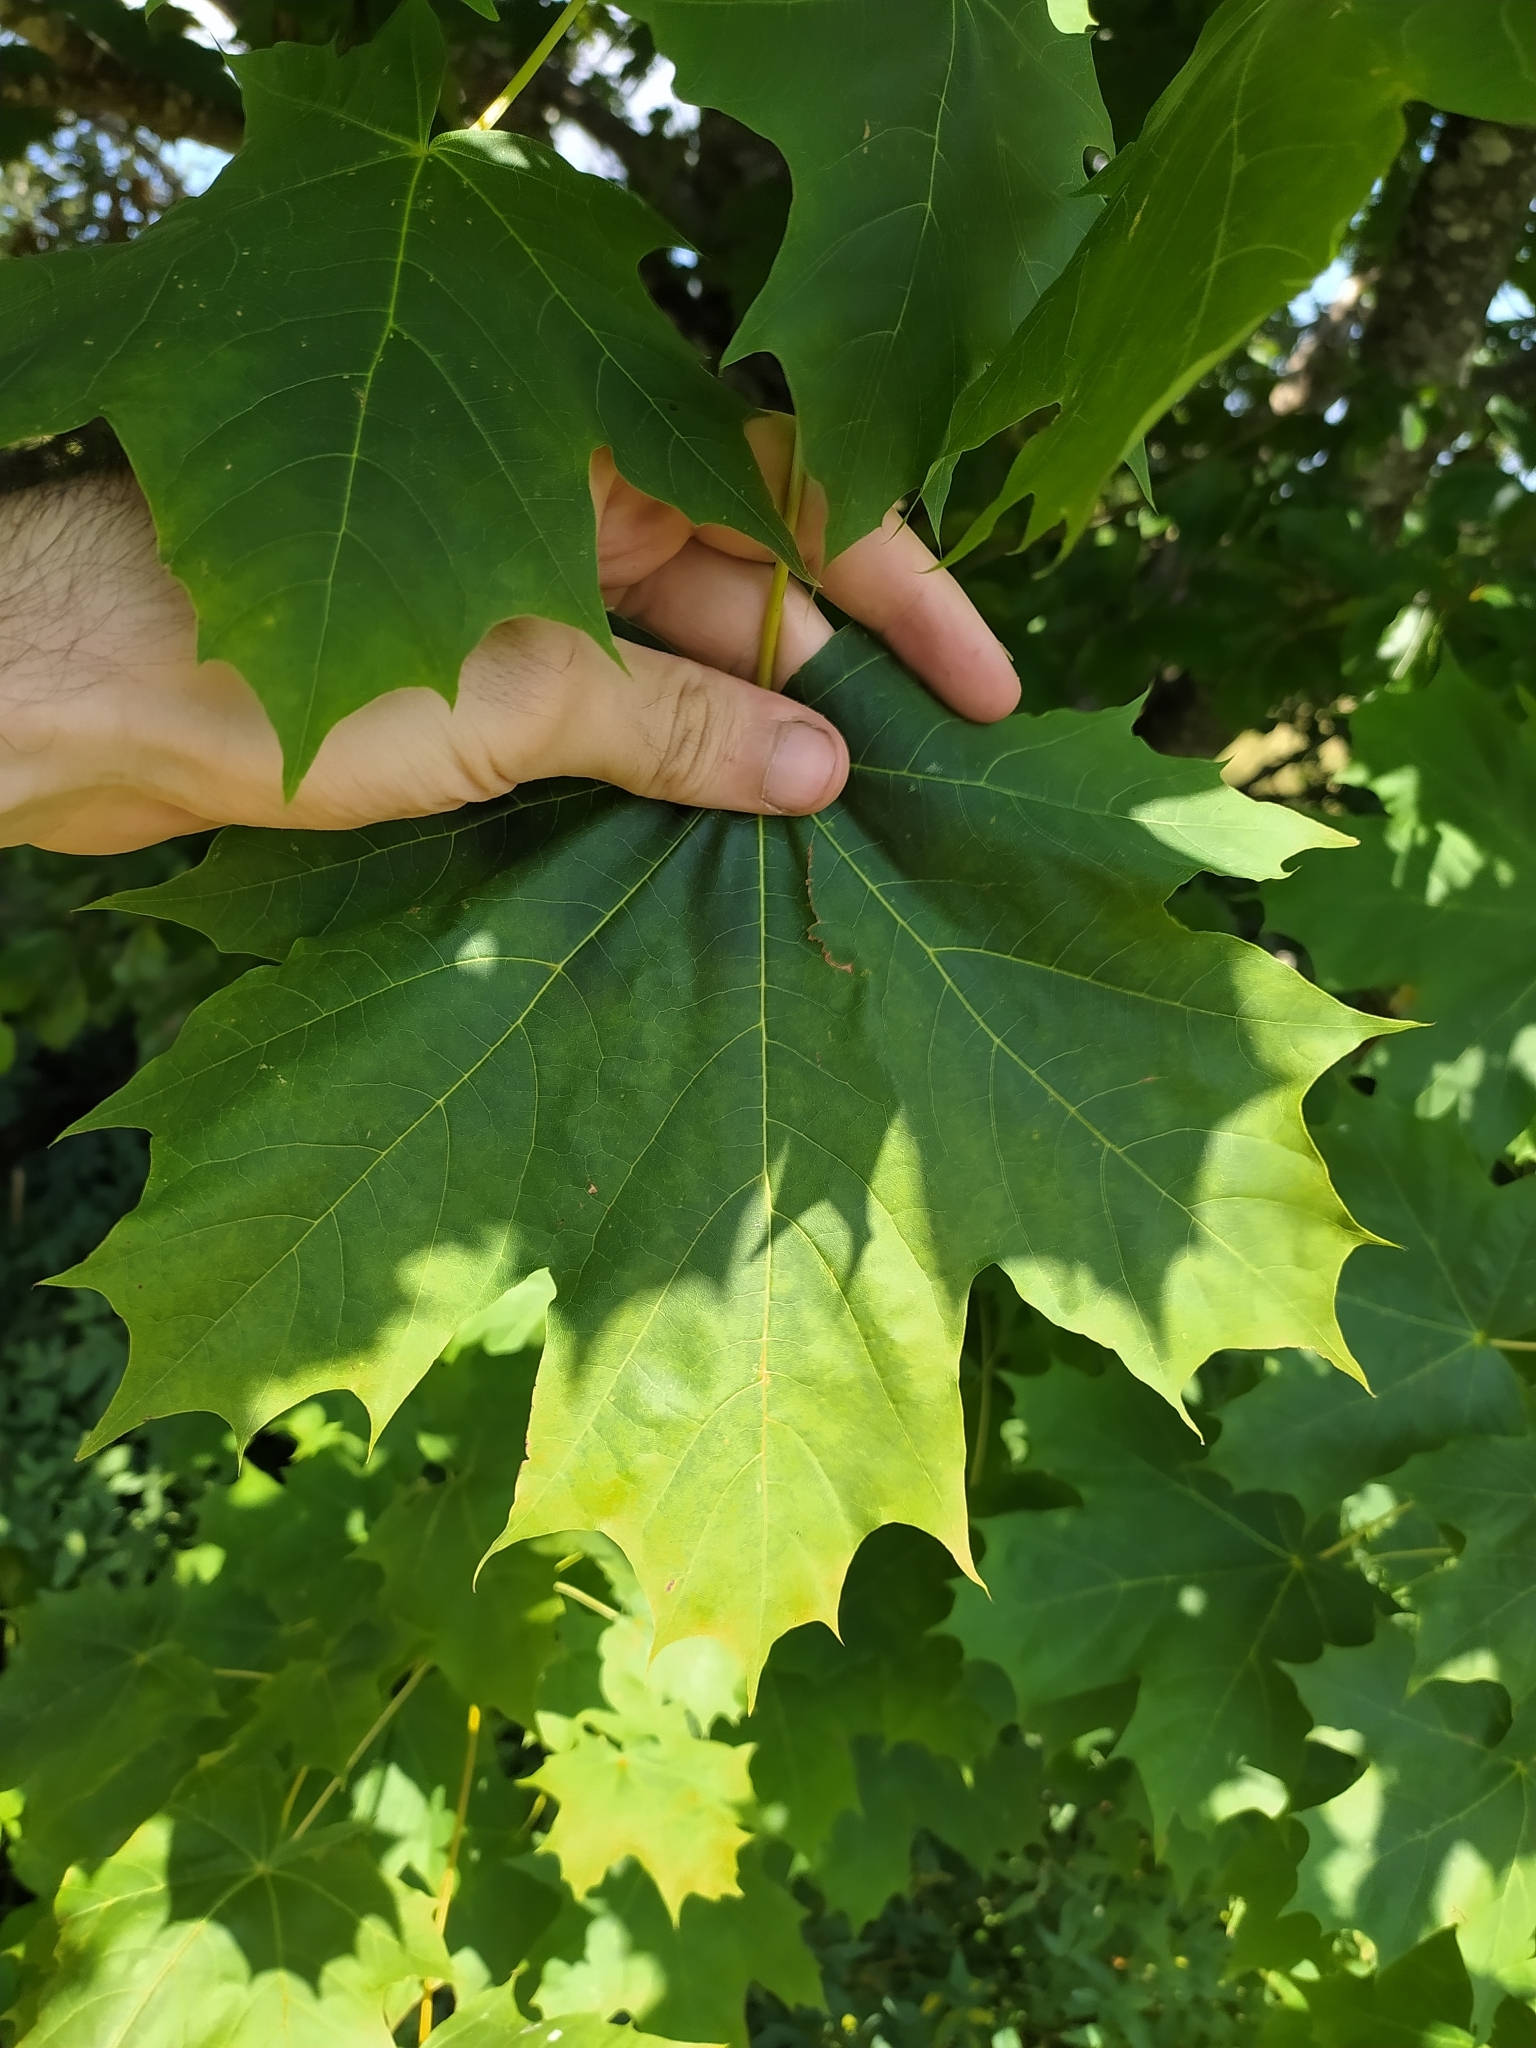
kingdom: Plantae
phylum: Tracheophyta
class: Magnoliopsida
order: Sapindales
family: Sapindaceae
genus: Acer
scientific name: Acer platanoides
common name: Norway maple
